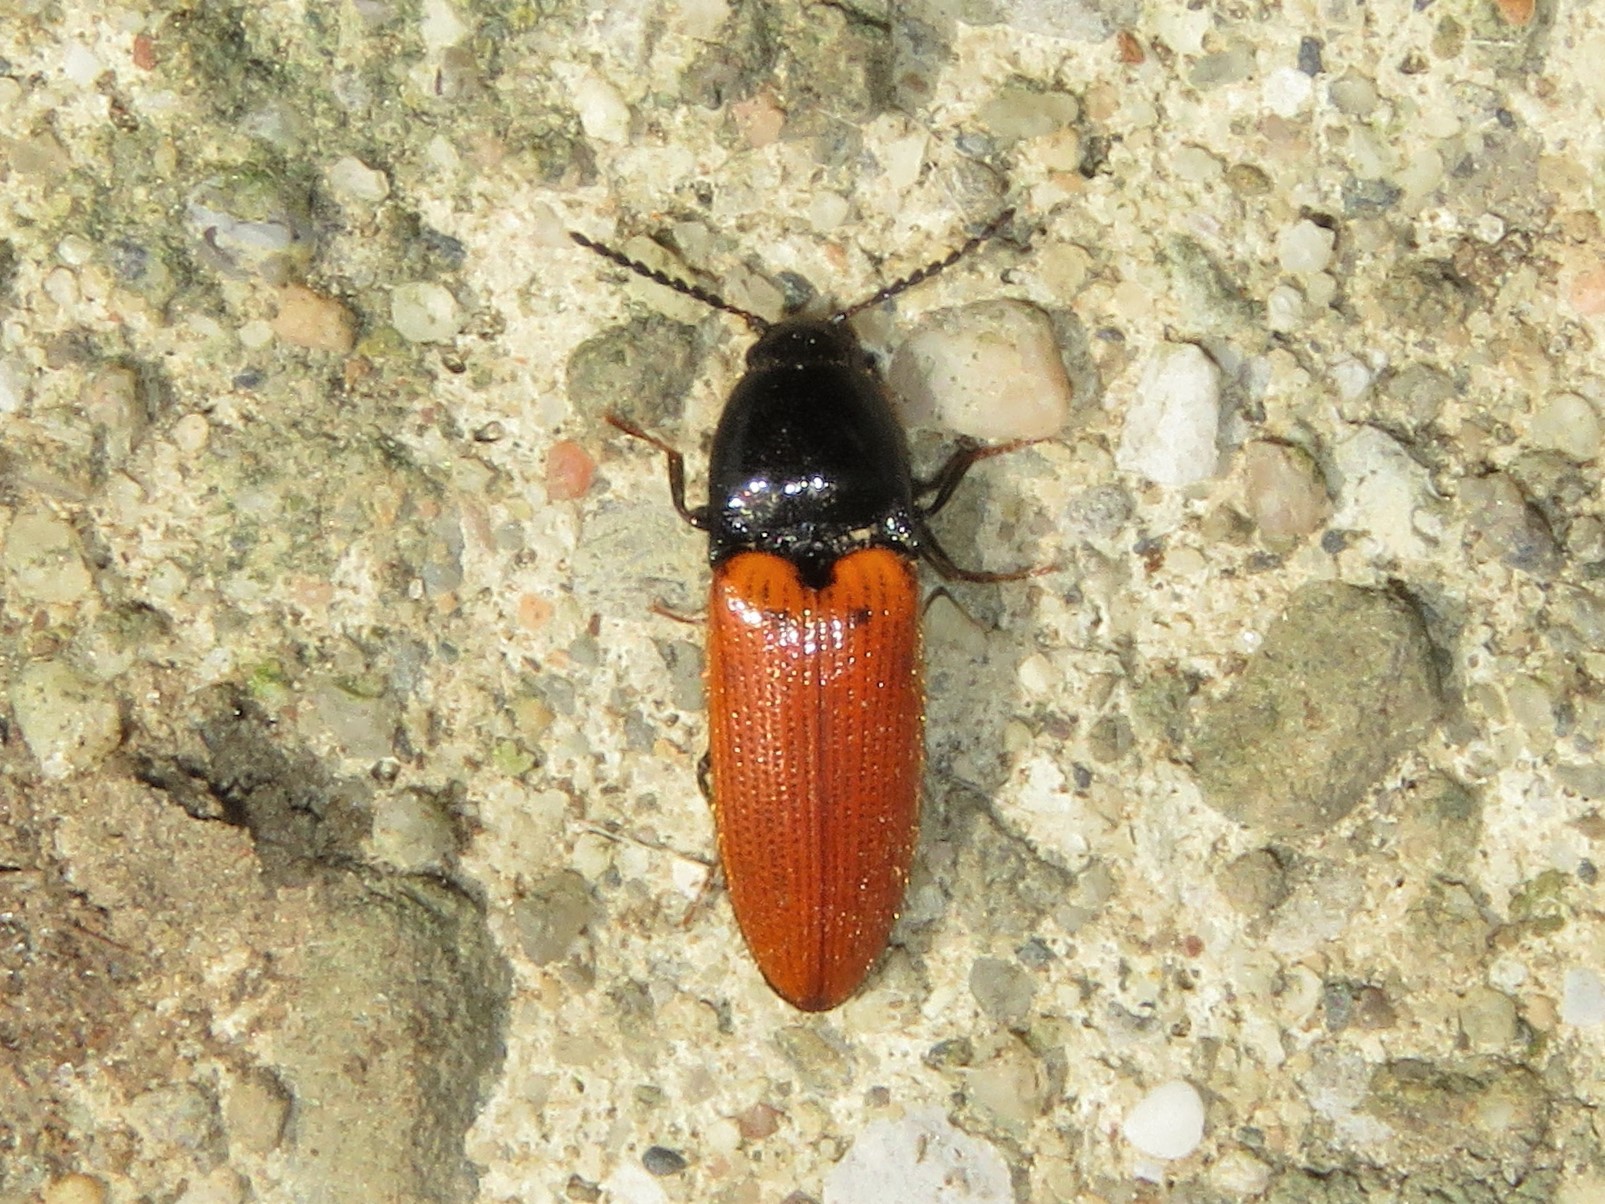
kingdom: Animalia
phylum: Arthropoda
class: Insecta
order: Coleoptera
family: Elateridae
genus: Ampedus
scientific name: Ampedus sanguinipennis
